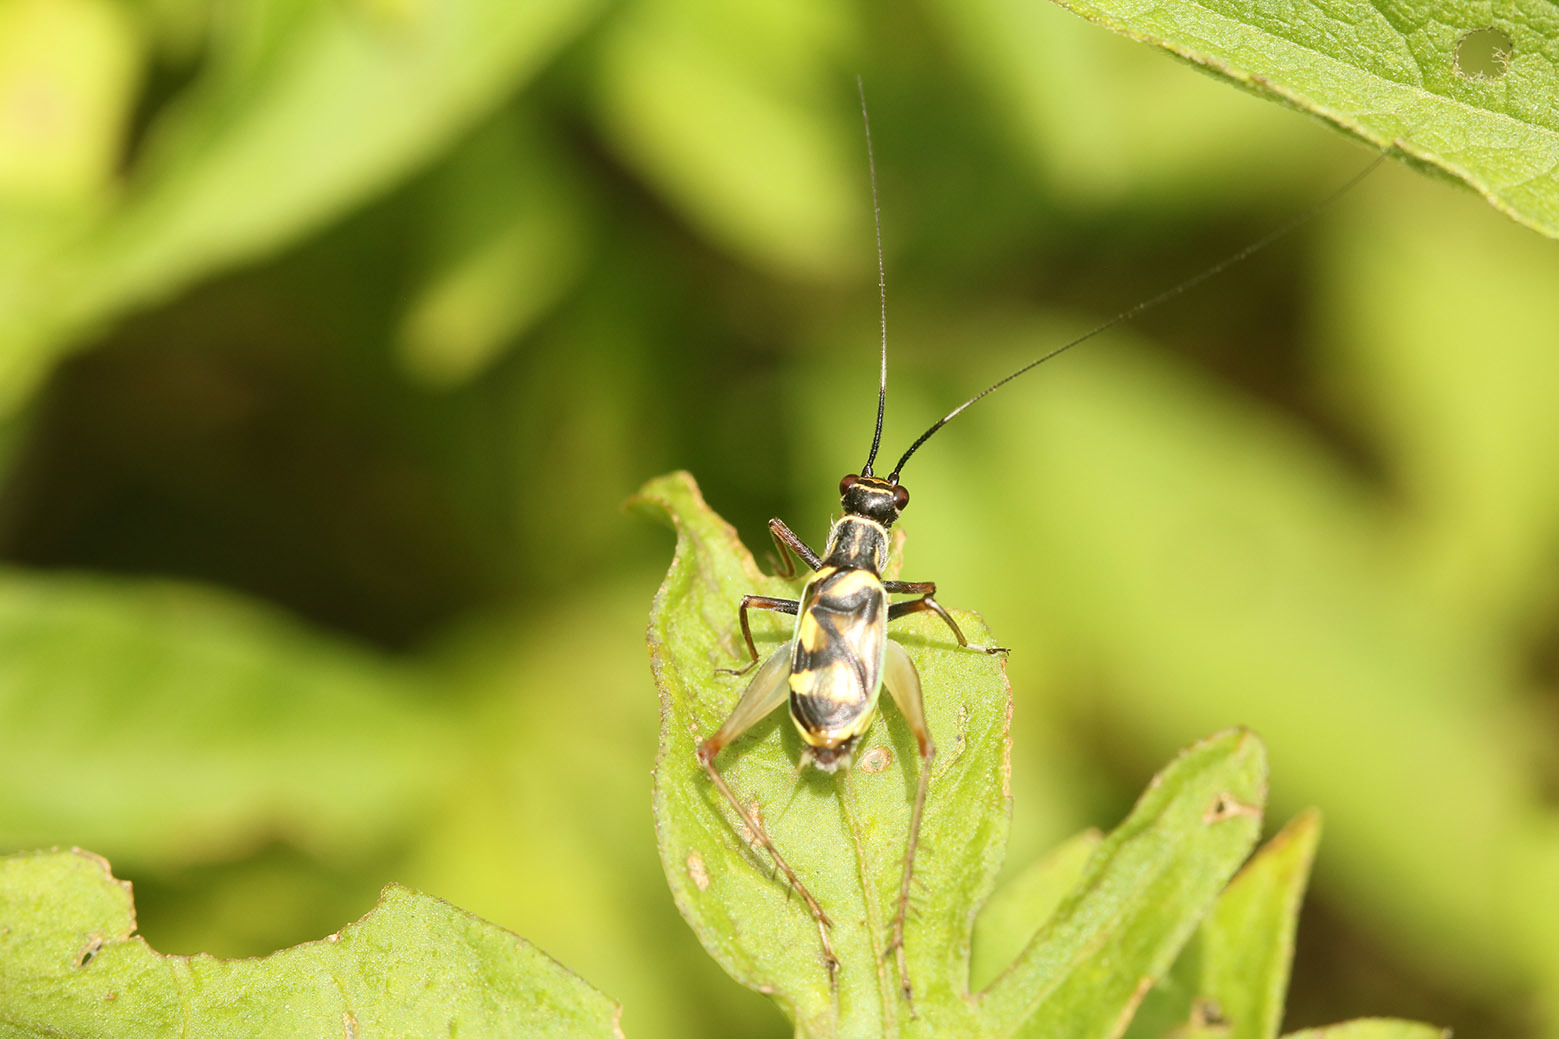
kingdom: Animalia
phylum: Arthropoda
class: Insecta
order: Orthoptera
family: Trigonidiidae
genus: Phylloscyrtus
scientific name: Phylloscyrtus amoenus
